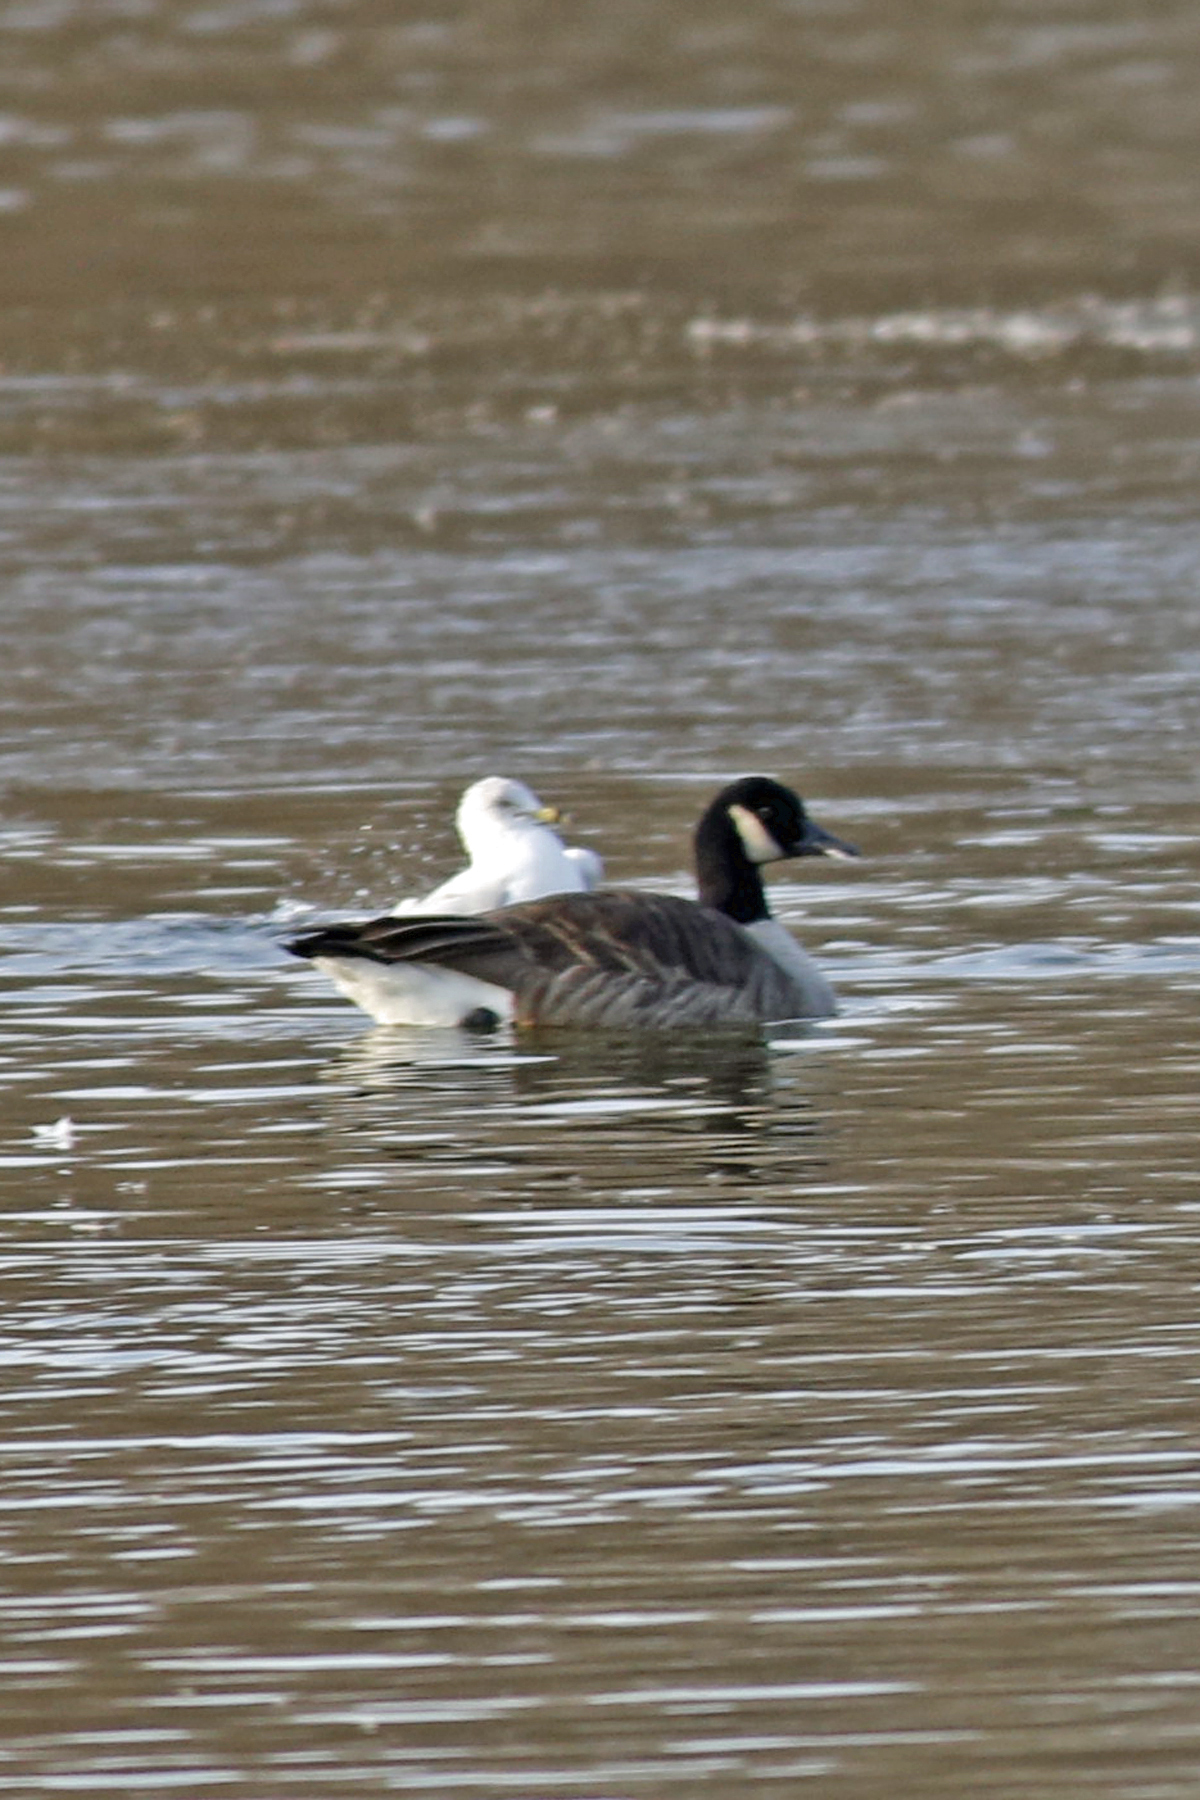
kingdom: Animalia
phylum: Chordata
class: Aves
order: Anseriformes
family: Anatidae
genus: Branta
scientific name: Branta canadensis
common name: Canada goose
